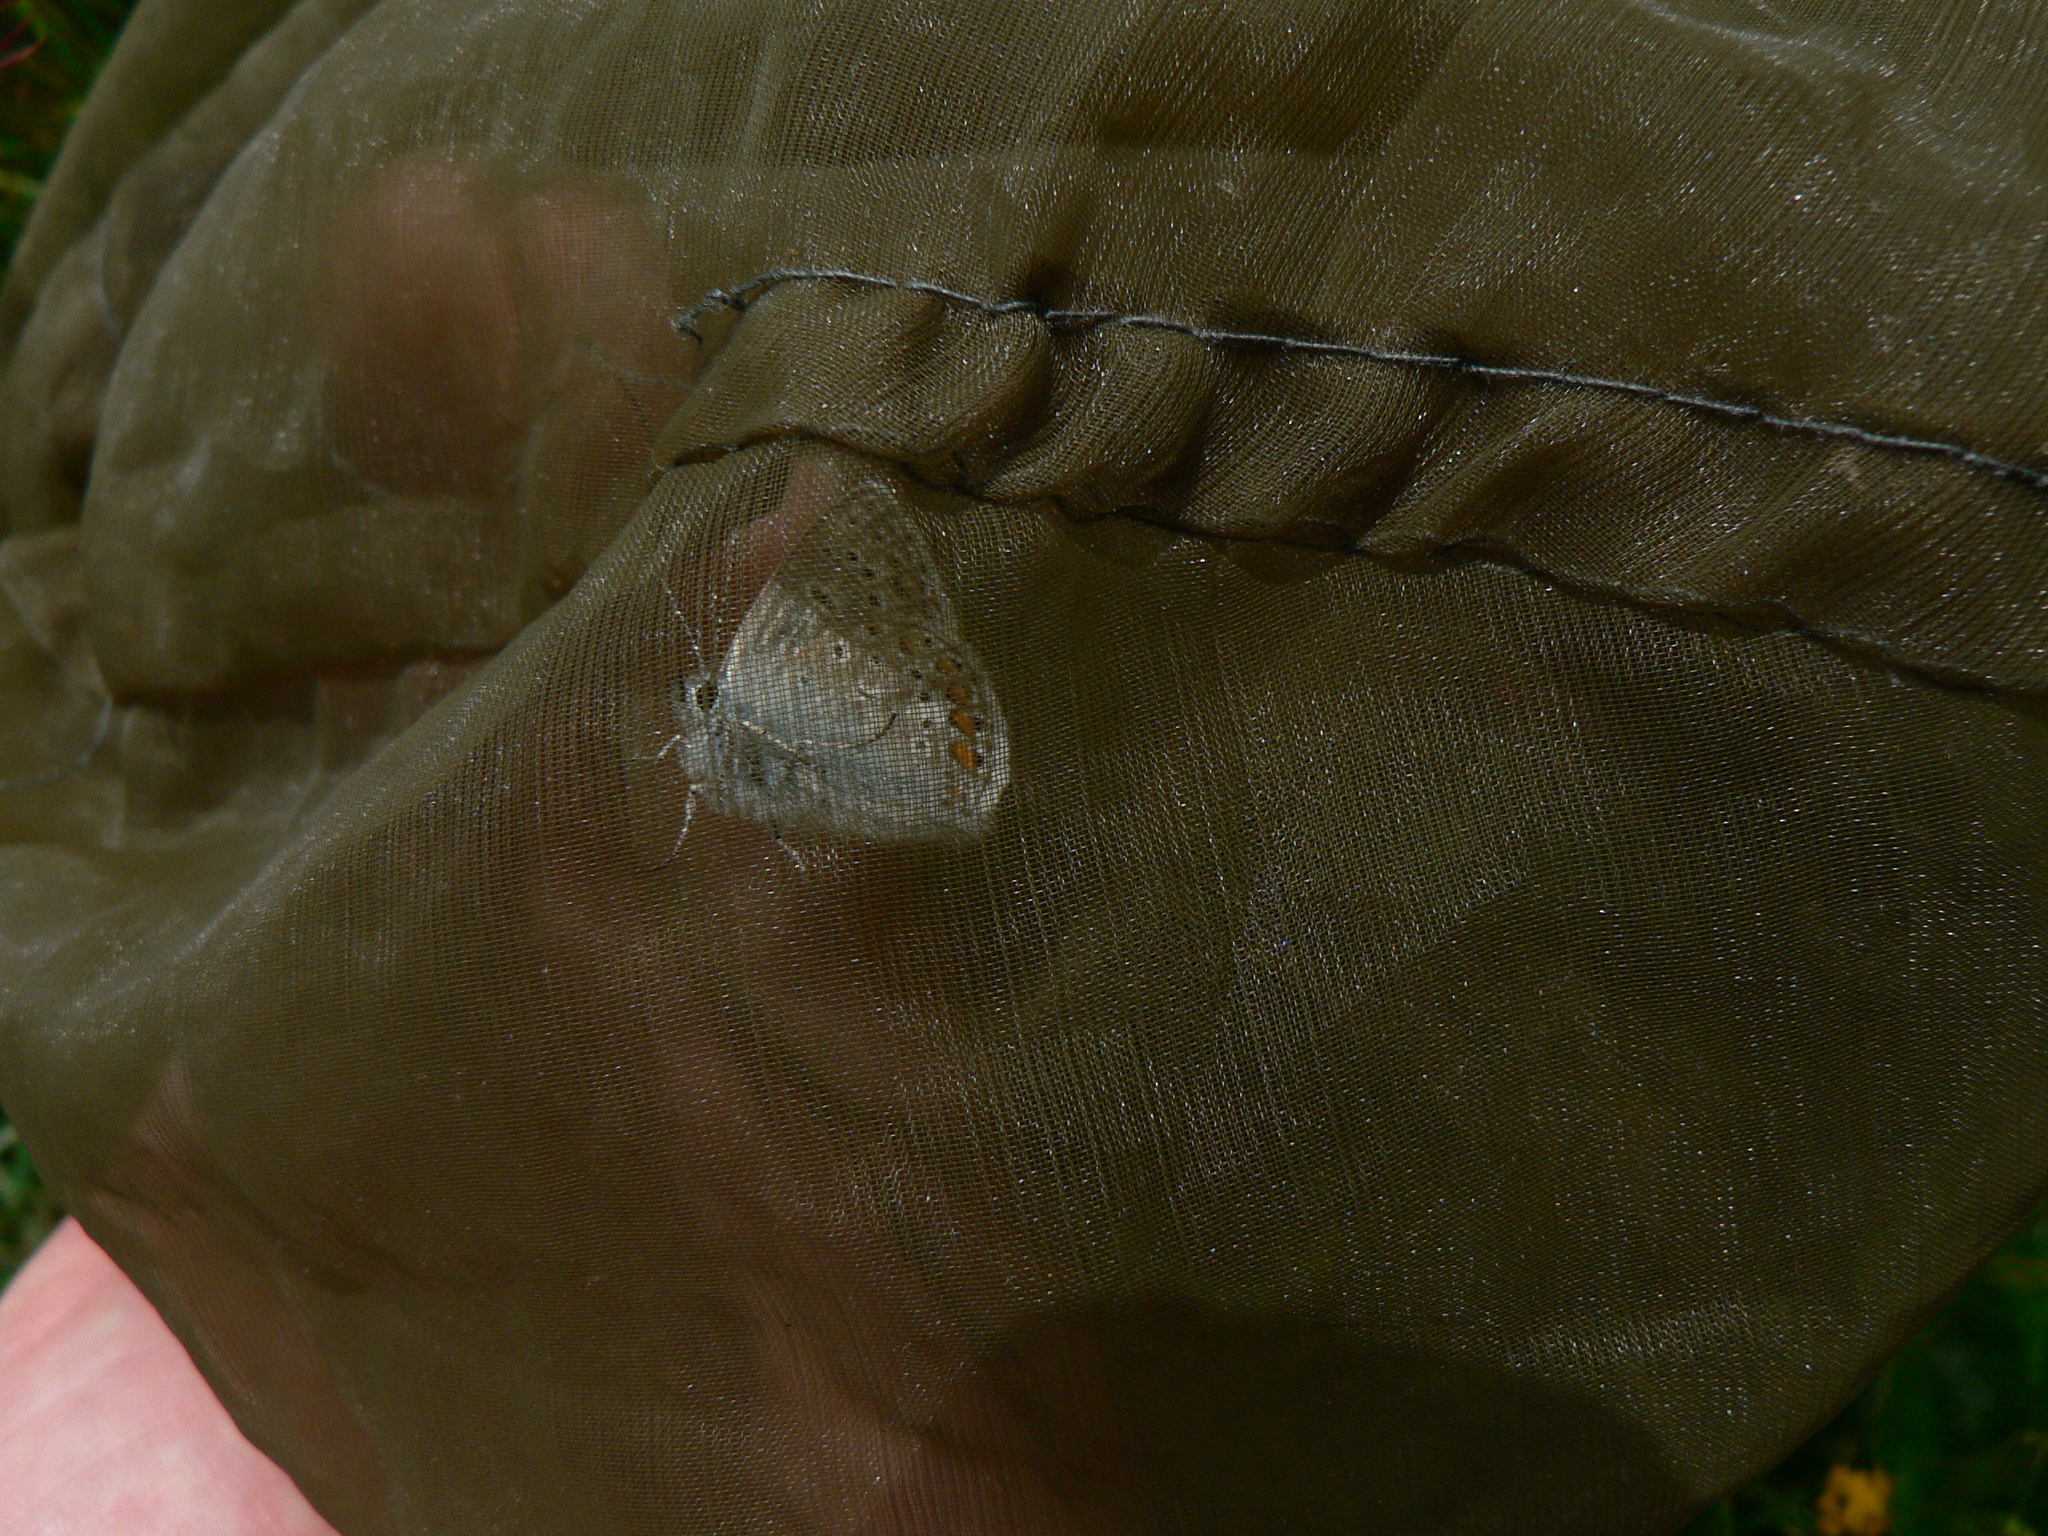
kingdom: Animalia
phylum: Arthropoda
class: Insecta
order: Lepidoptera
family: Lycaenidae
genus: Polyommatus
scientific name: Polyommatus icarus
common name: Common blue
